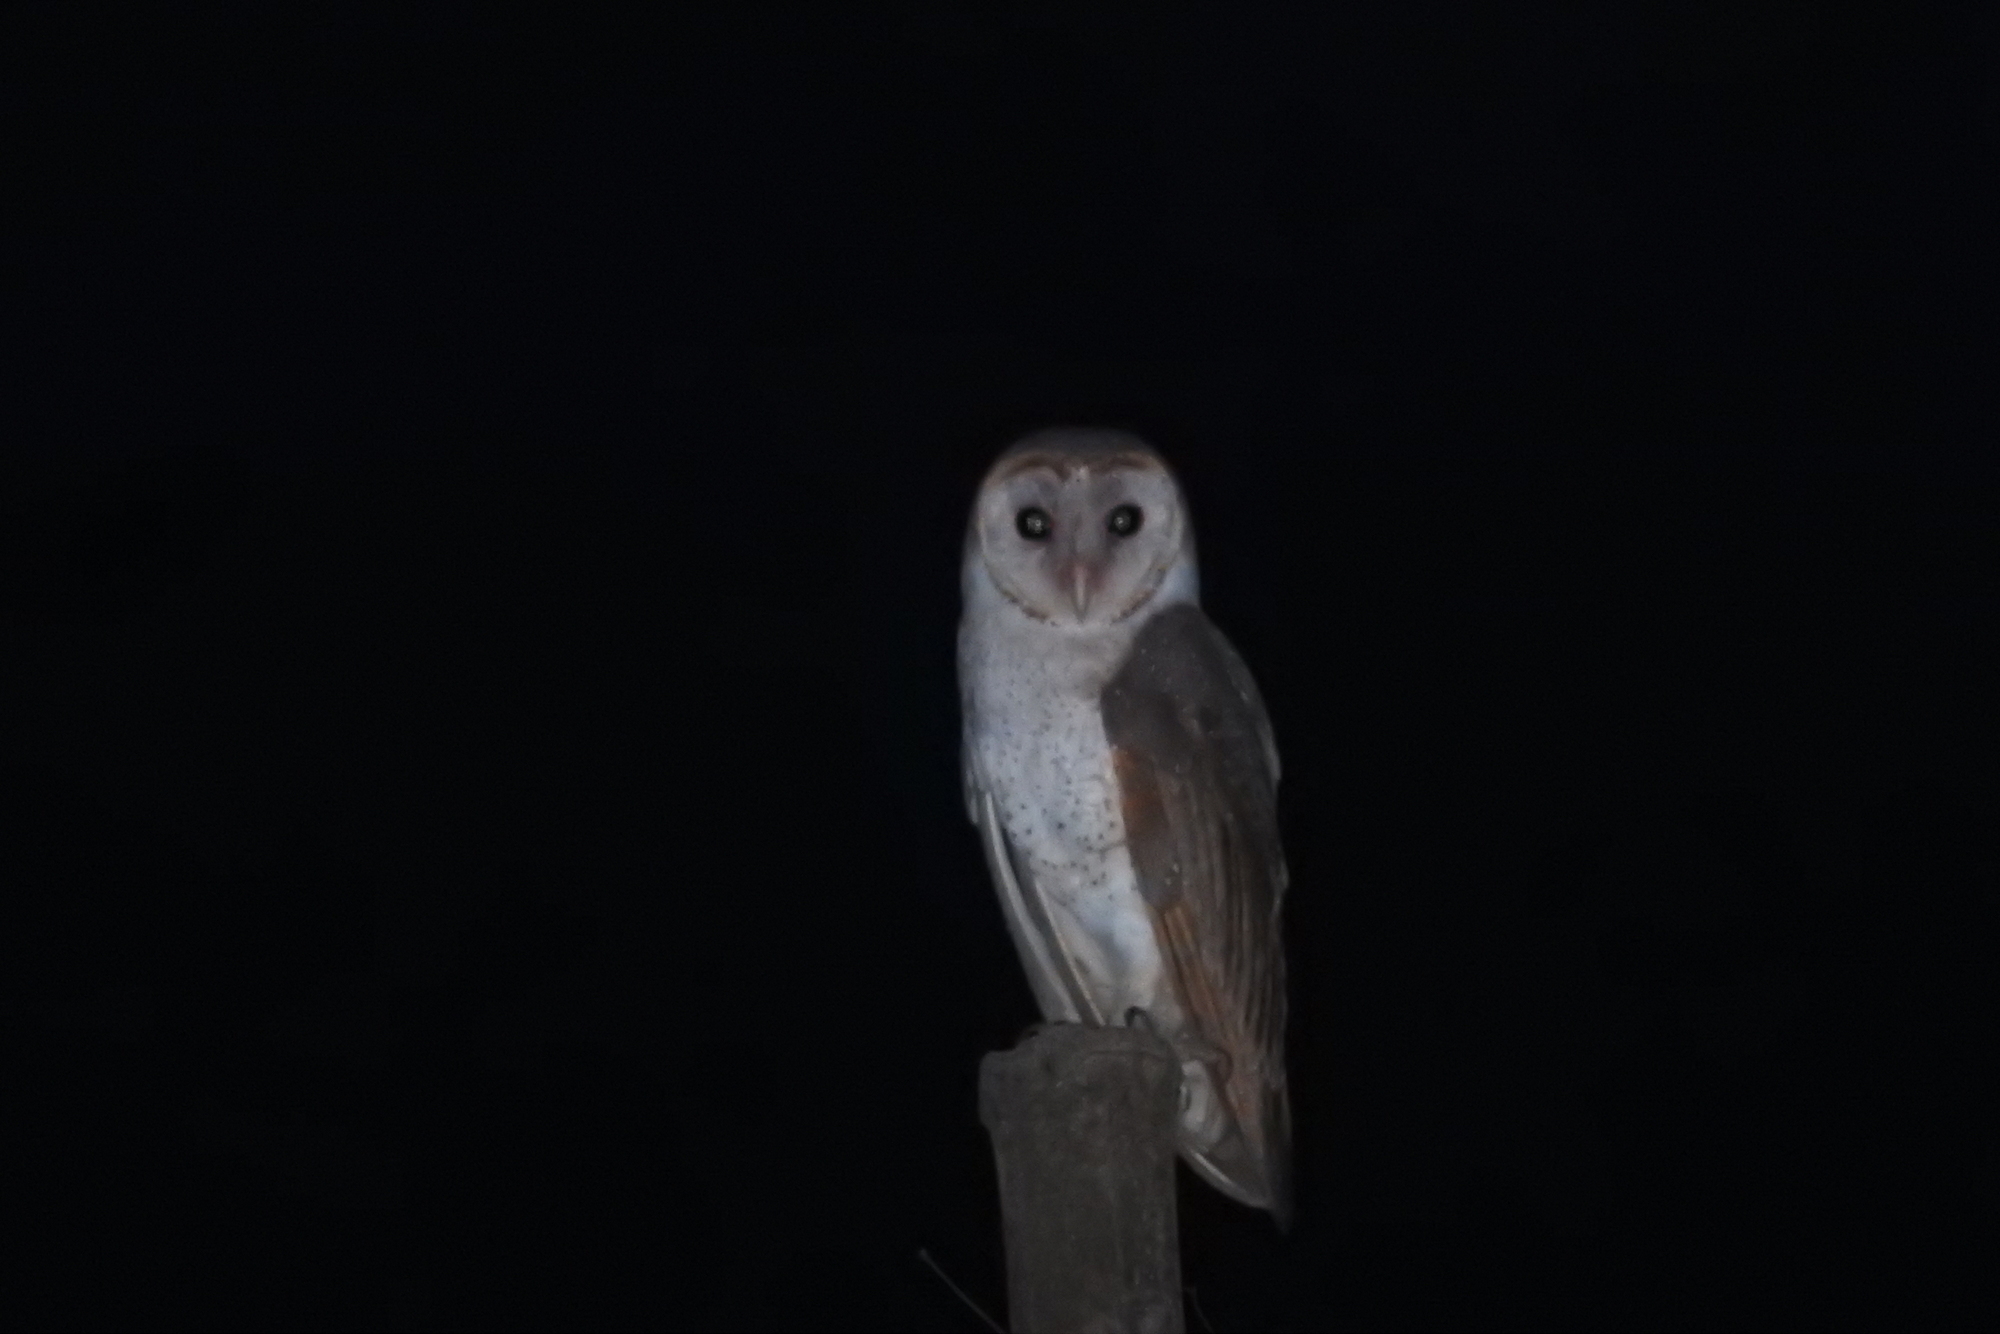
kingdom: Animalia
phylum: Chordata
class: Aves
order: Strigiformes
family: Tytonidae
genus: Tyto
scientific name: Tyto alba
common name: Barn owl
